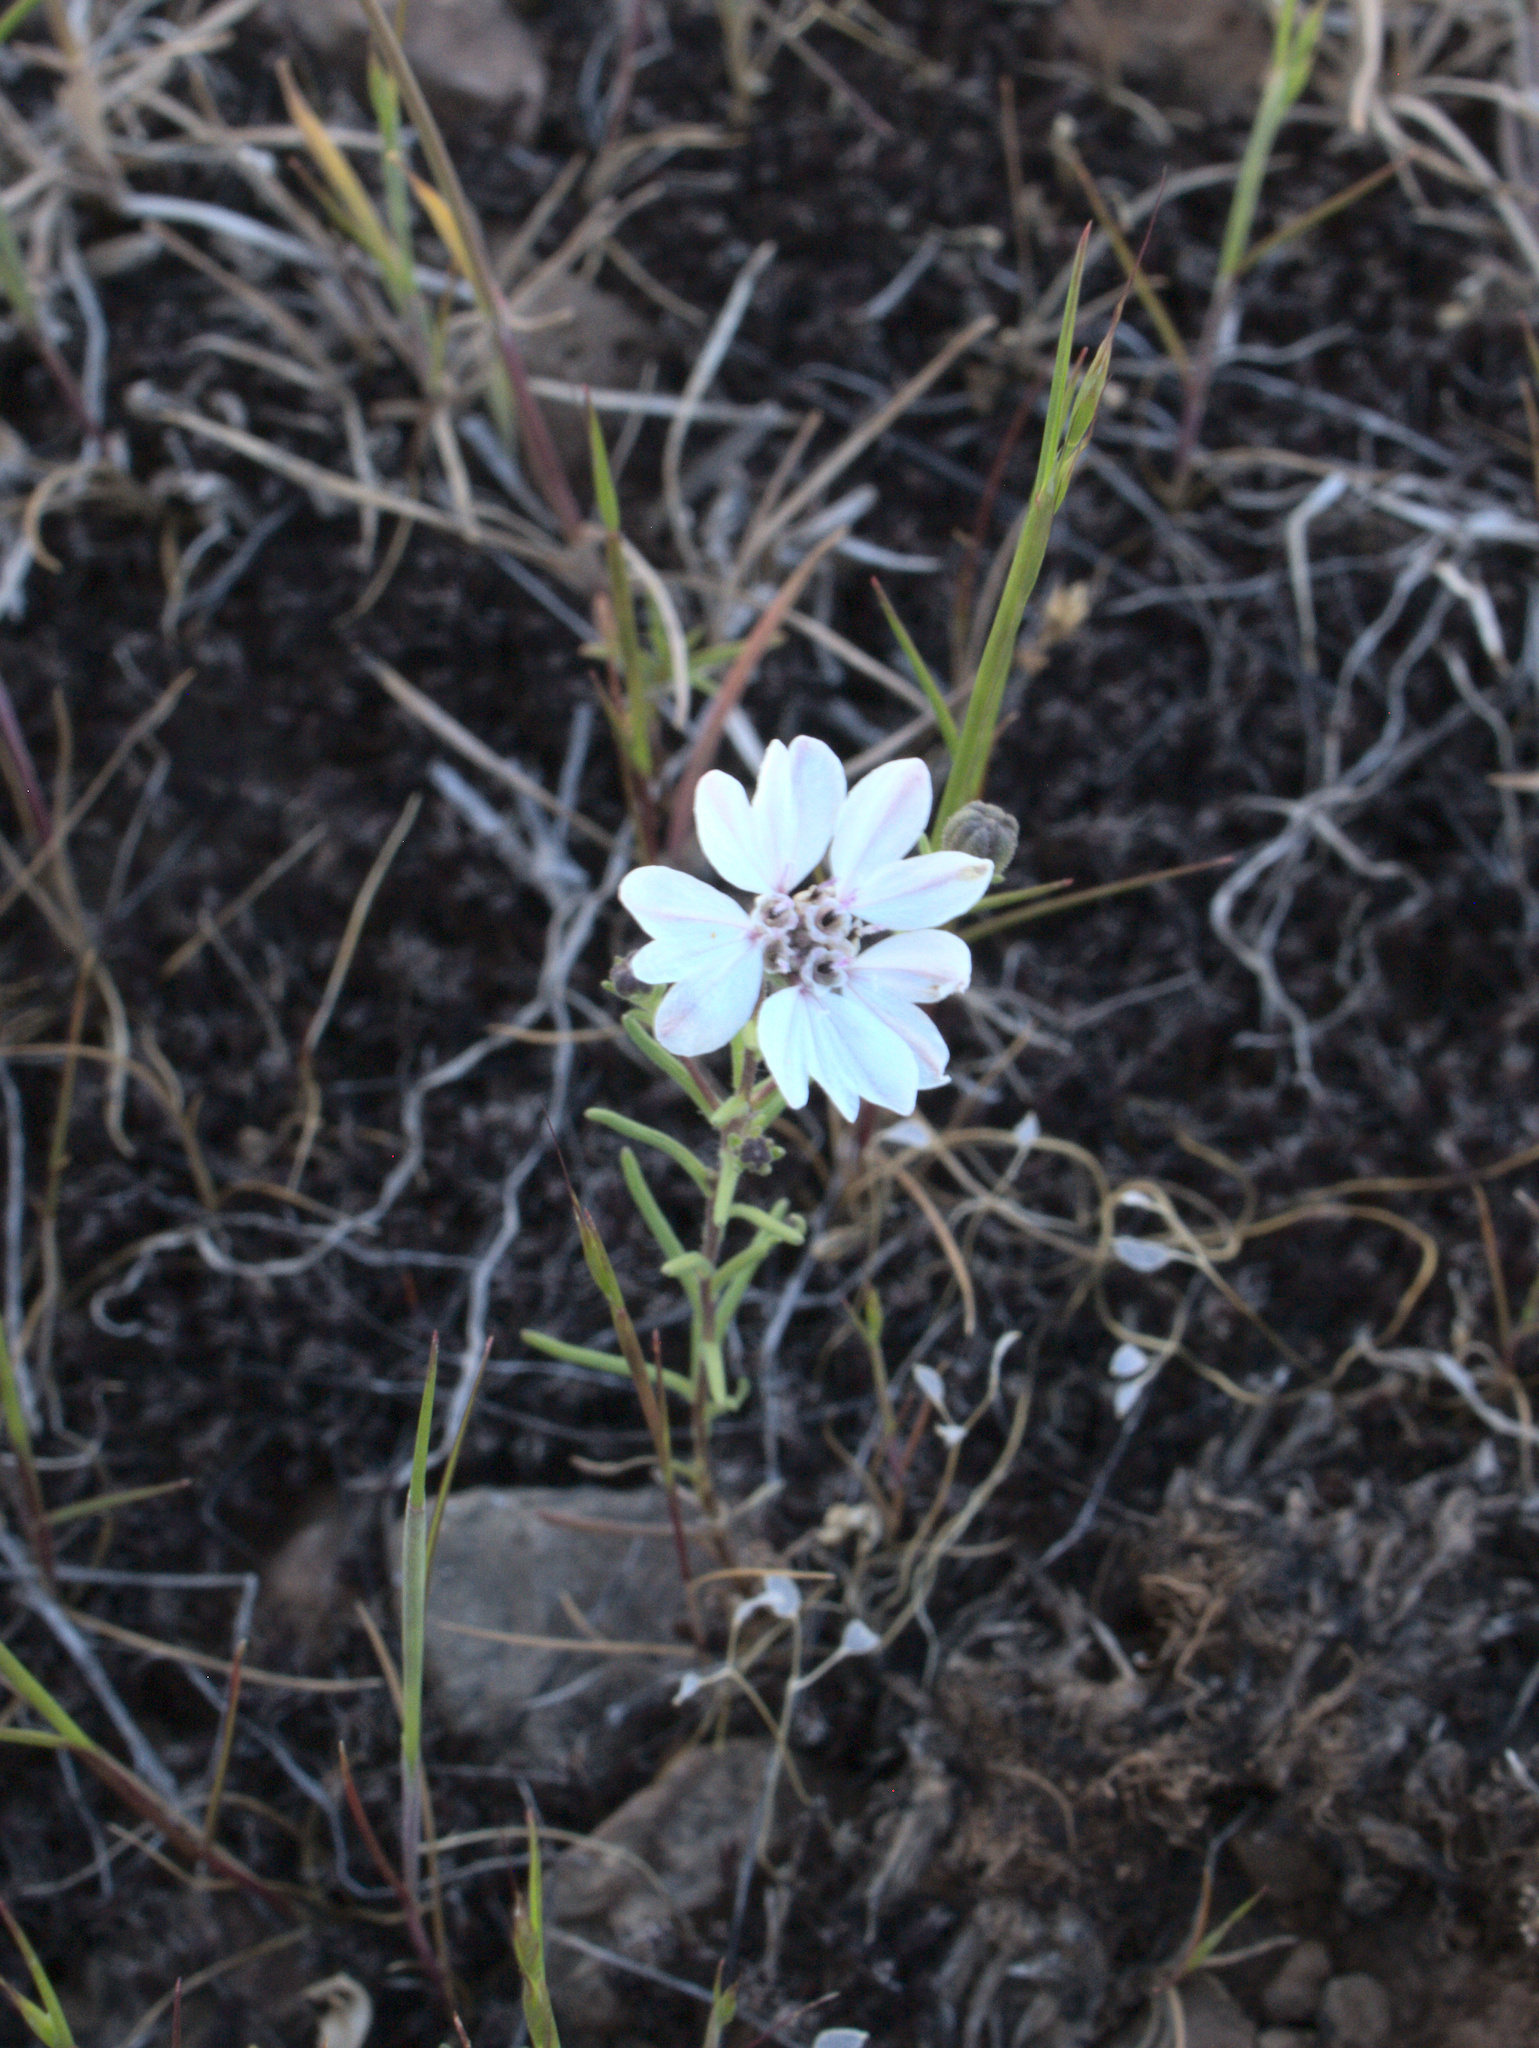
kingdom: Plantae
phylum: Tracheophyta
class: Magnoliopsida
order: Asterales
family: Asteraceae
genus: Blepharipappus
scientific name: Blepharipappus scaber
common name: Rough blepharipappus
